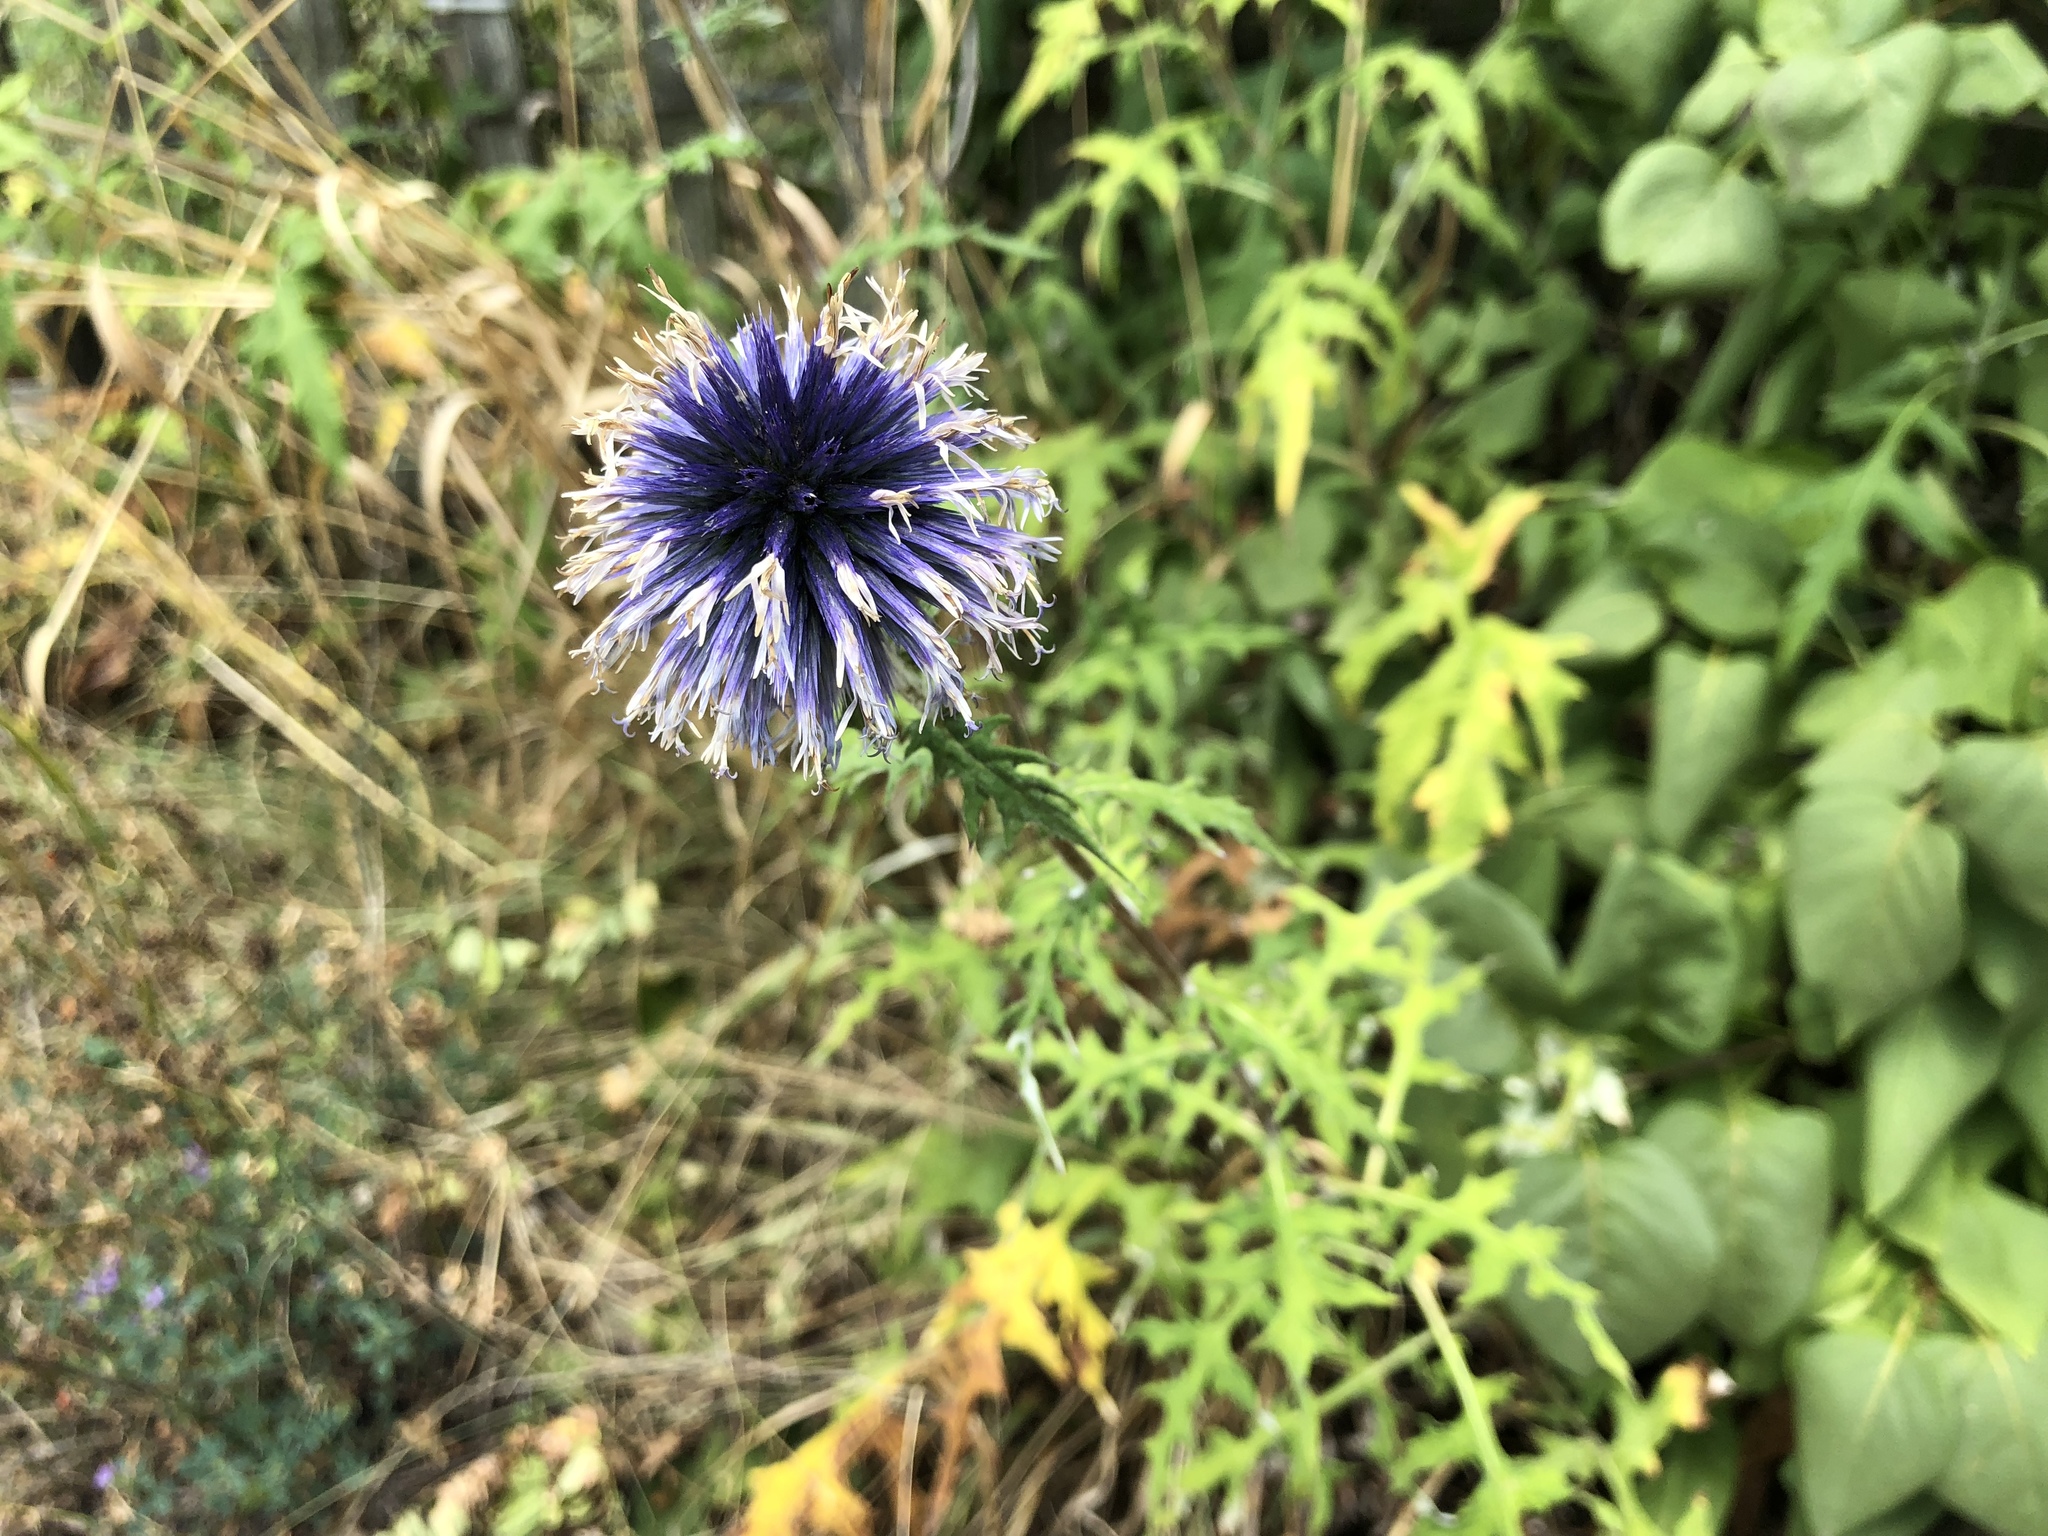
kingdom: Plantae
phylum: Tracheophyta
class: Magnoliopsida
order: Asterales
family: Asteraceae
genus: Echinops
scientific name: Echinops bannaticus
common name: Blue globe-thistle
